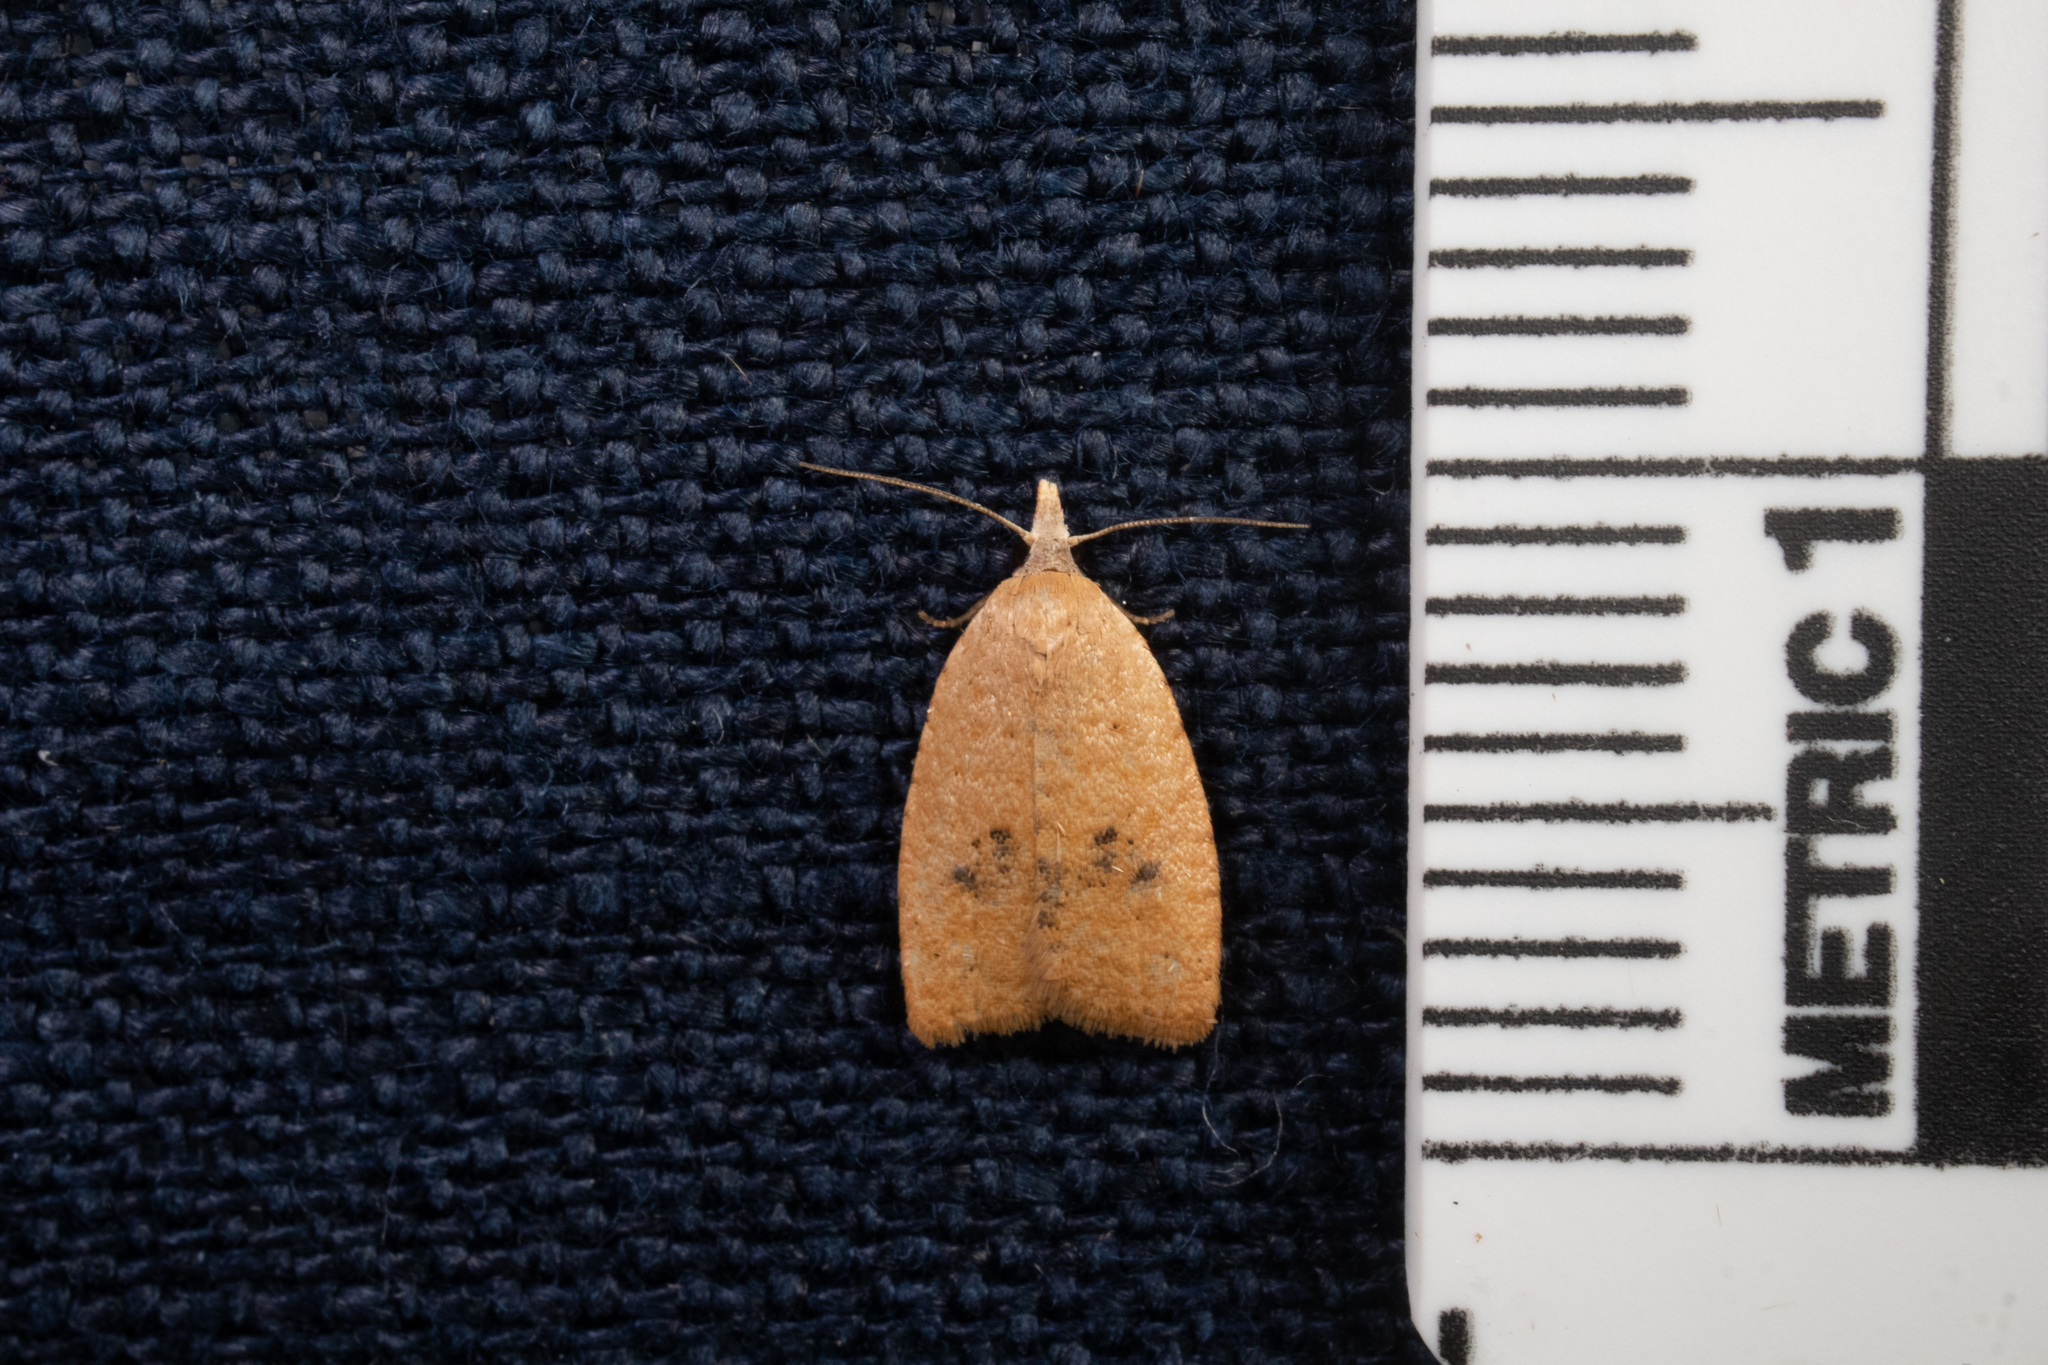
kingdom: Animalia
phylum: Arthropoda
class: Insecta
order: Lepidoptera
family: Tortricidae
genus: Sparganothoides
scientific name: Sparganothoides lentiginosana
